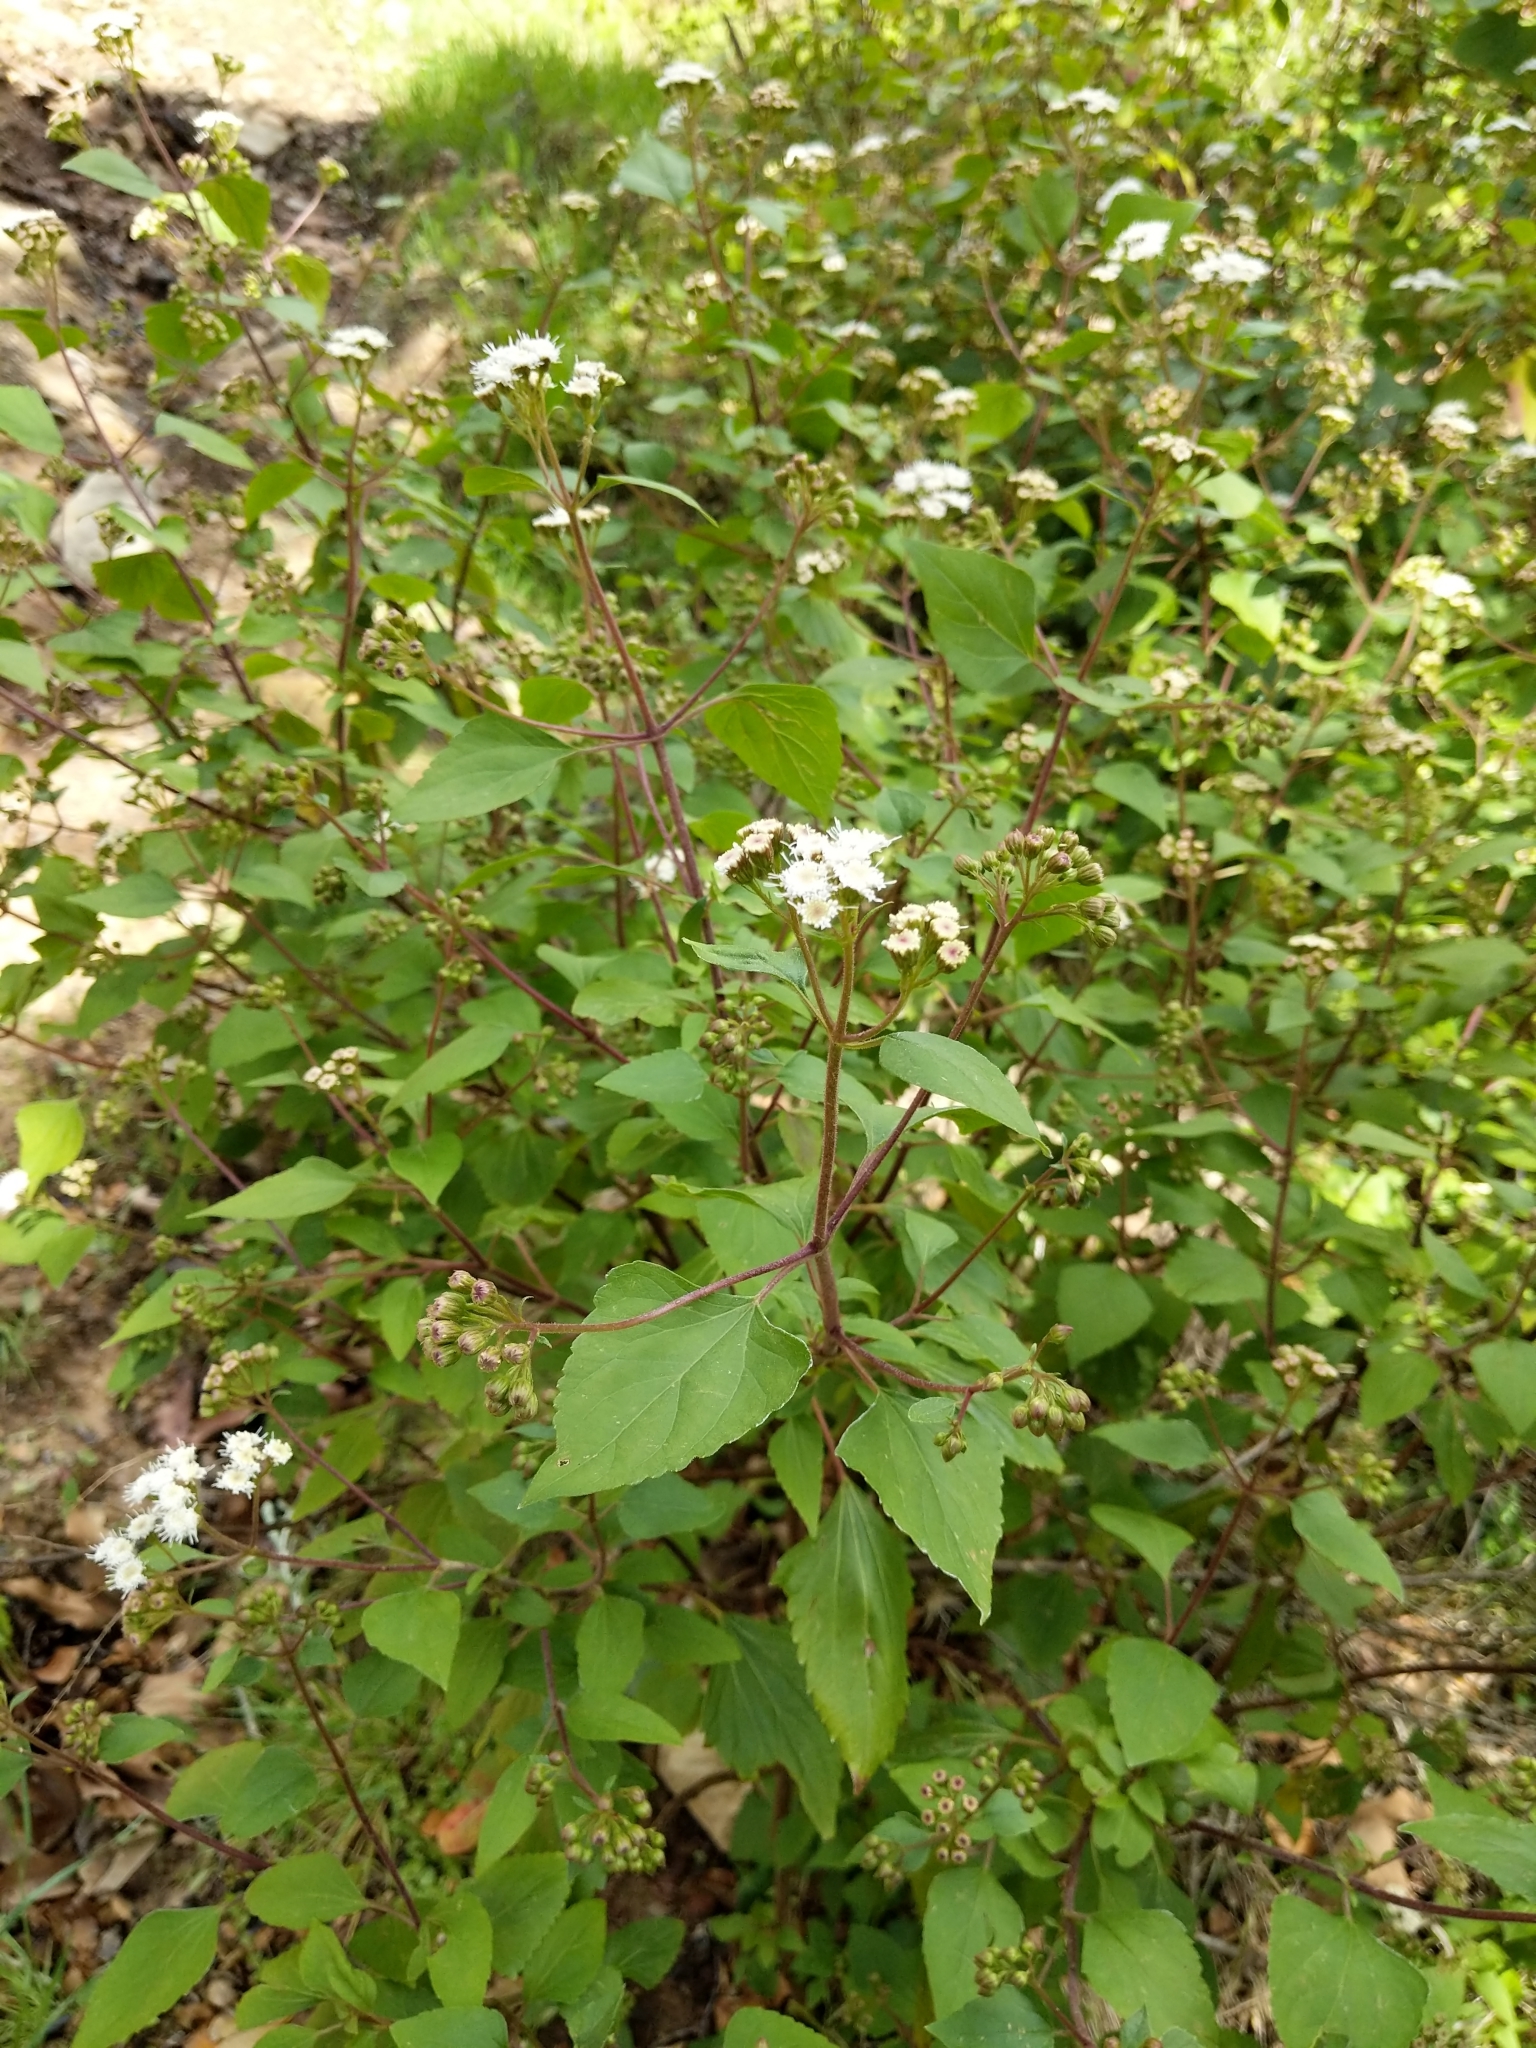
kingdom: Plantae
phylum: Tracheophyta
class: Magnoliopsida
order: Asterales
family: Asteraceae
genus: Ageratina
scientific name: Ageratina adenophora
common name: Sticky snakeroot
